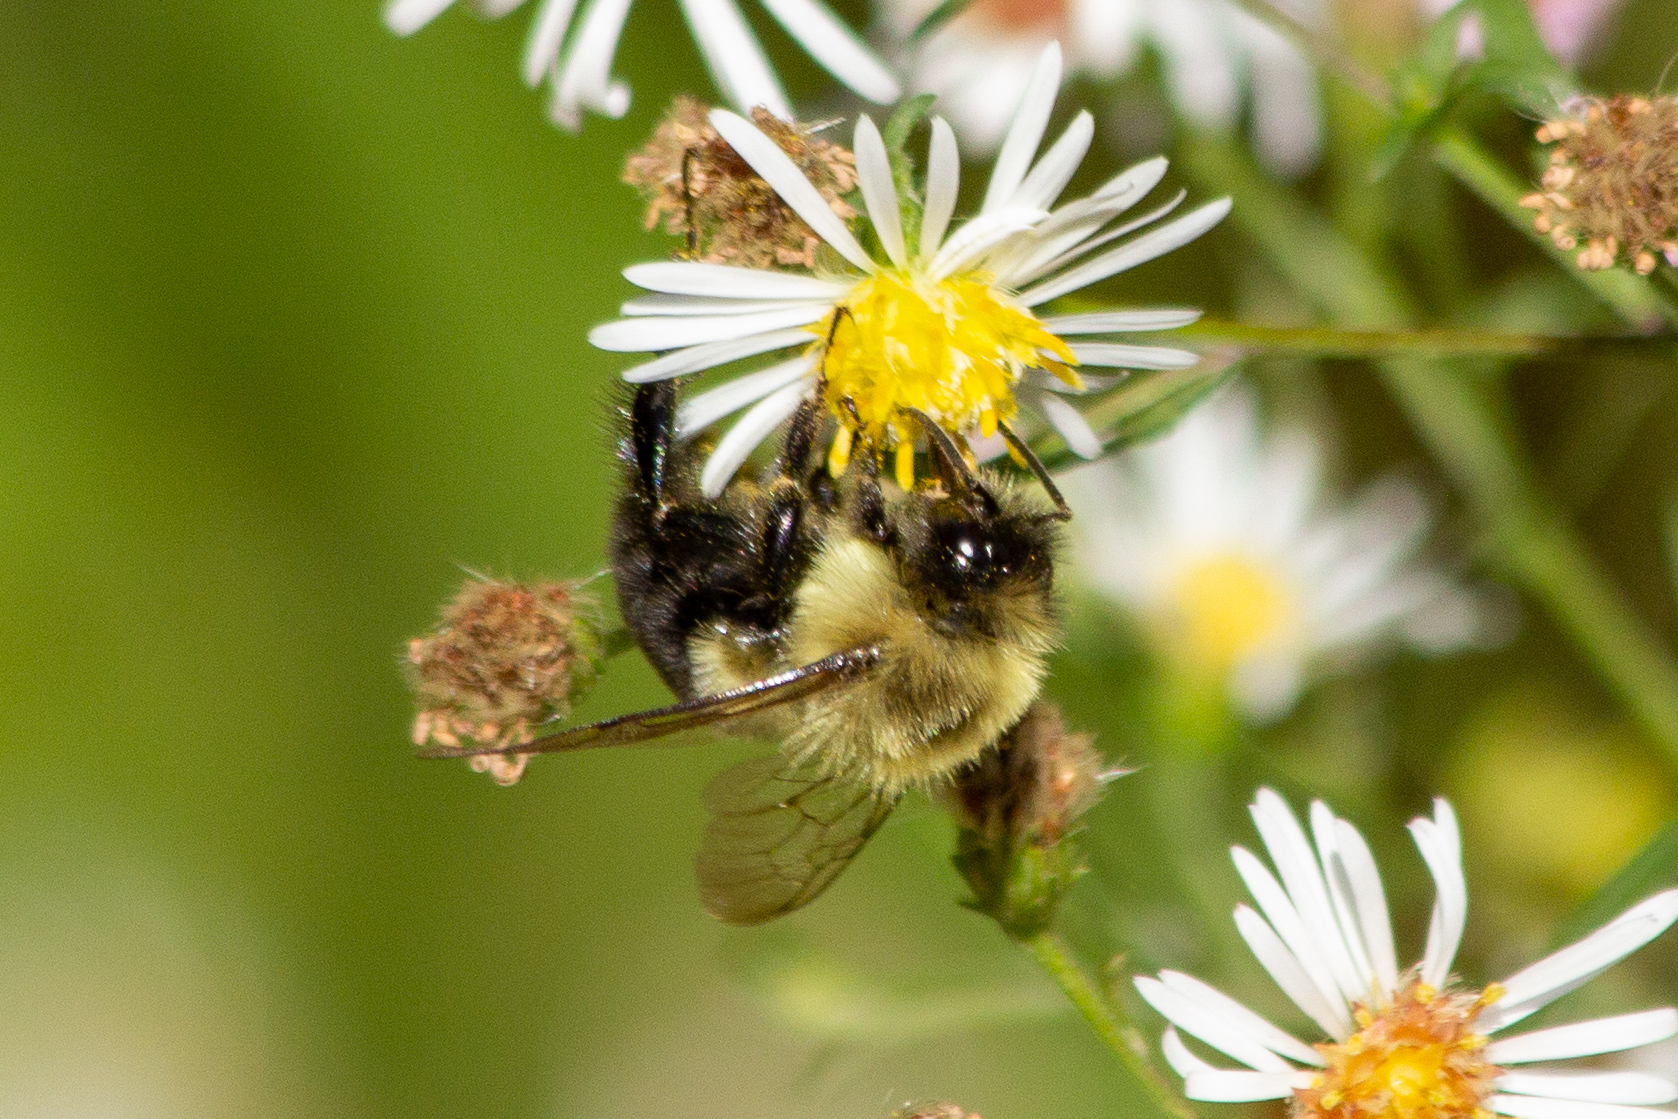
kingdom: Animalia
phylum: Arthropoda
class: Insecta
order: Hymenoptera
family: Apidae
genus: Bombus
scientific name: Bombus impatiens
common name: Common eastern bumble bee
